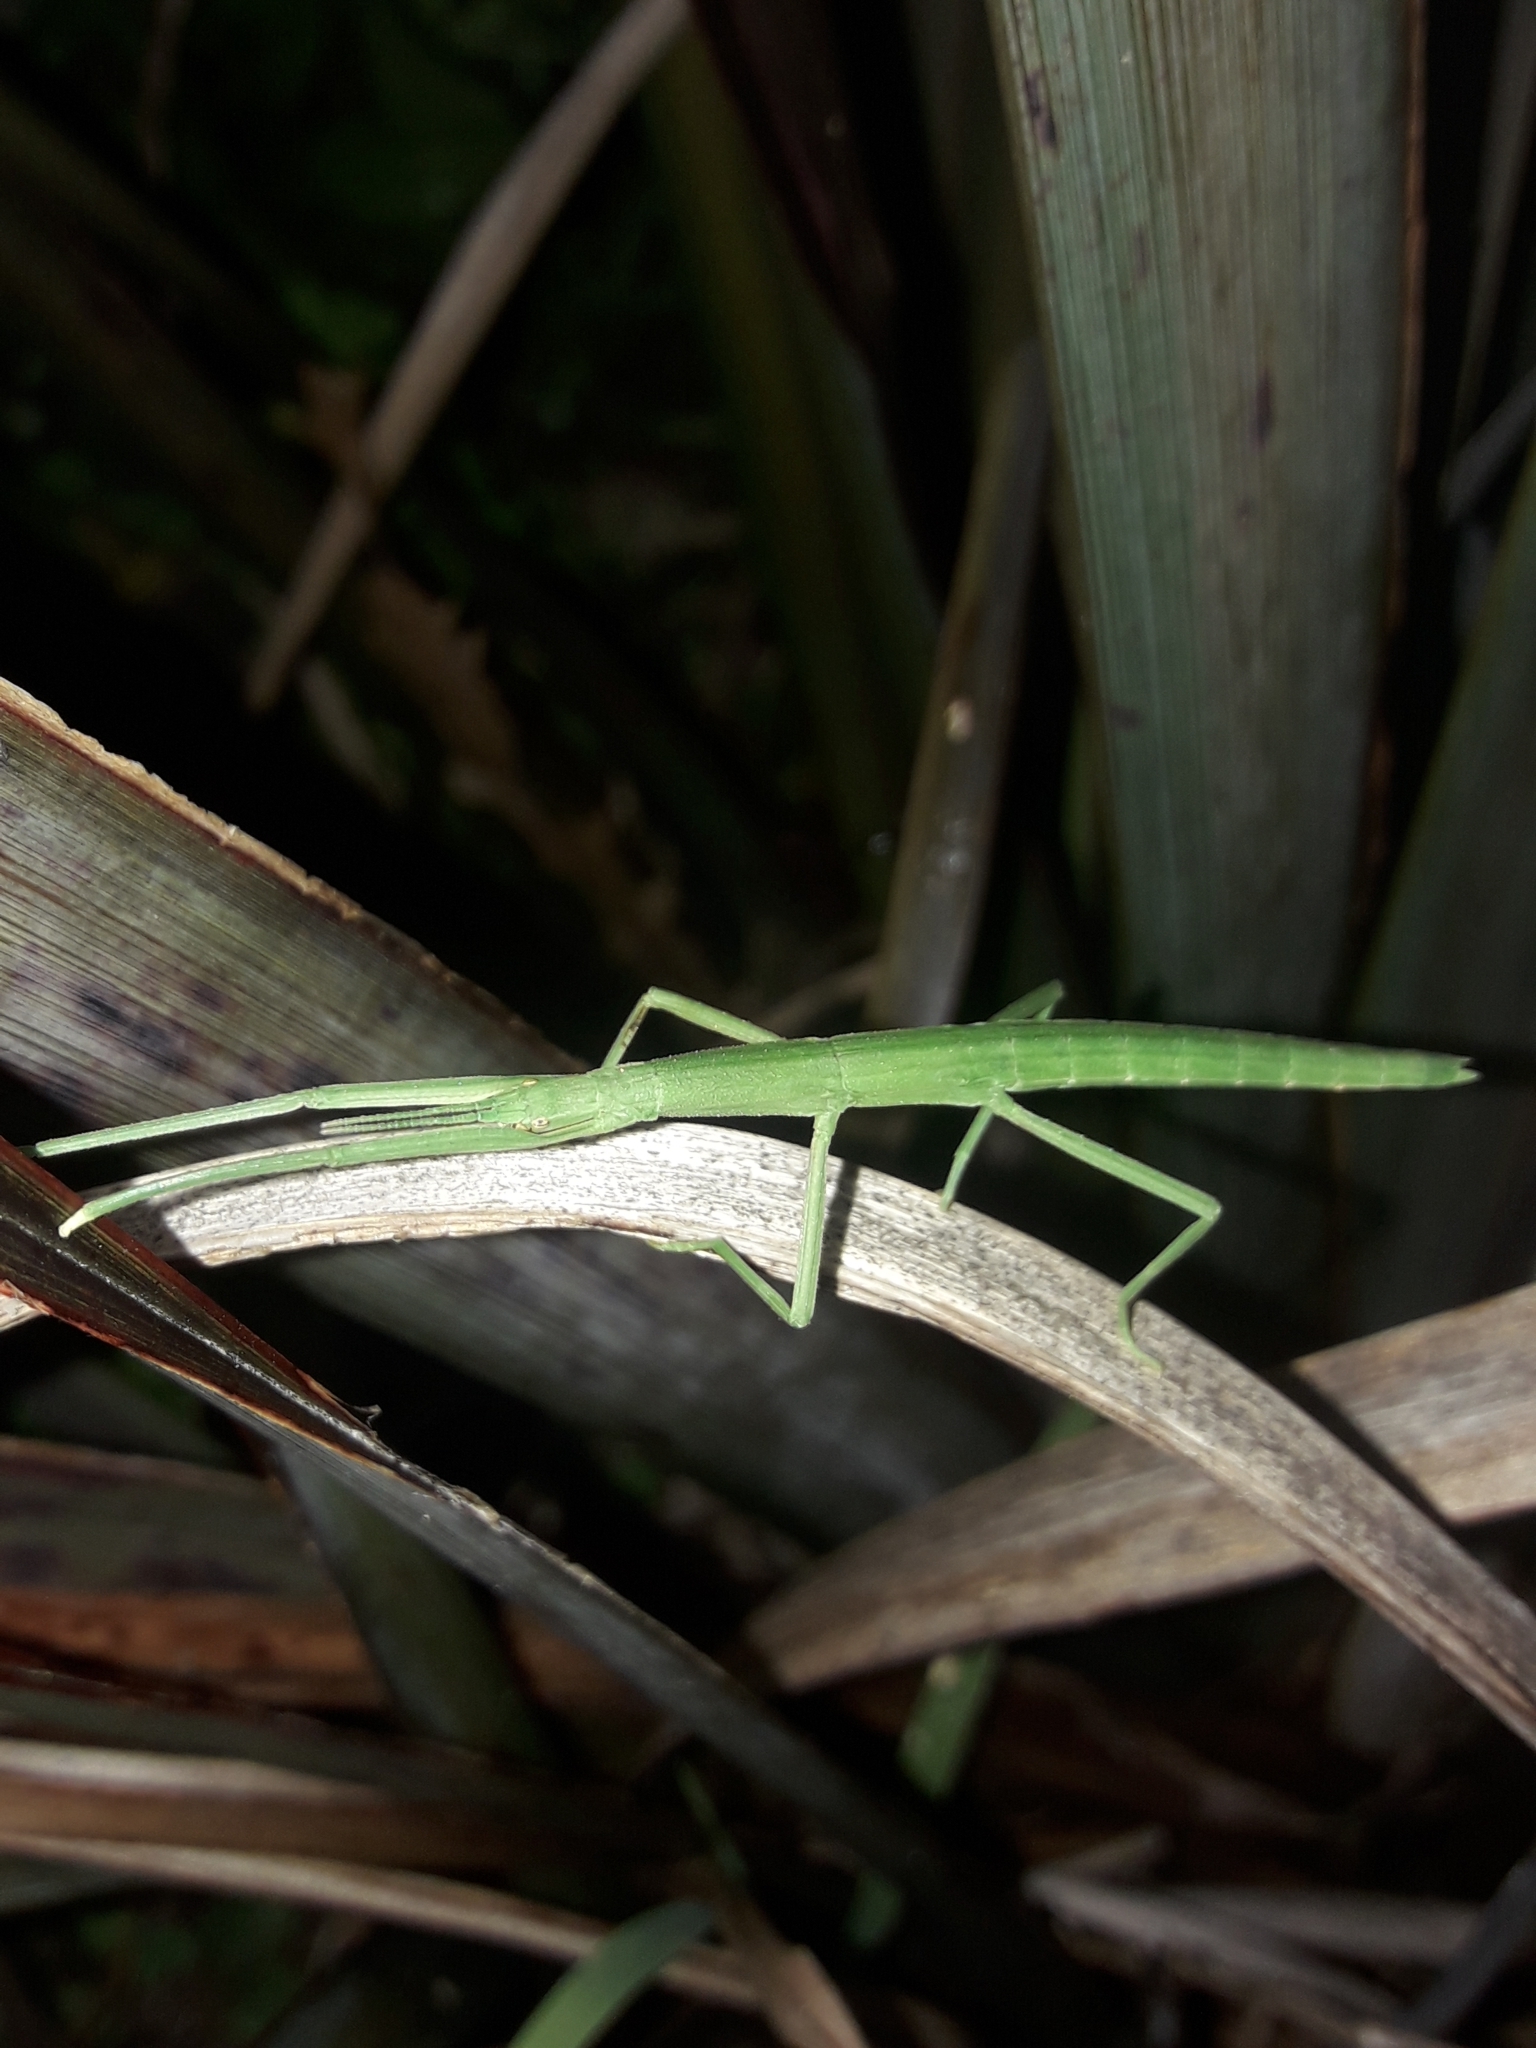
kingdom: Animalia
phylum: Arthropoda
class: Insecta
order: Phasmida
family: Phasmatidae
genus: Tectarchus
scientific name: Tectarchus huttoni
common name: The common ridge-backed stick insect
